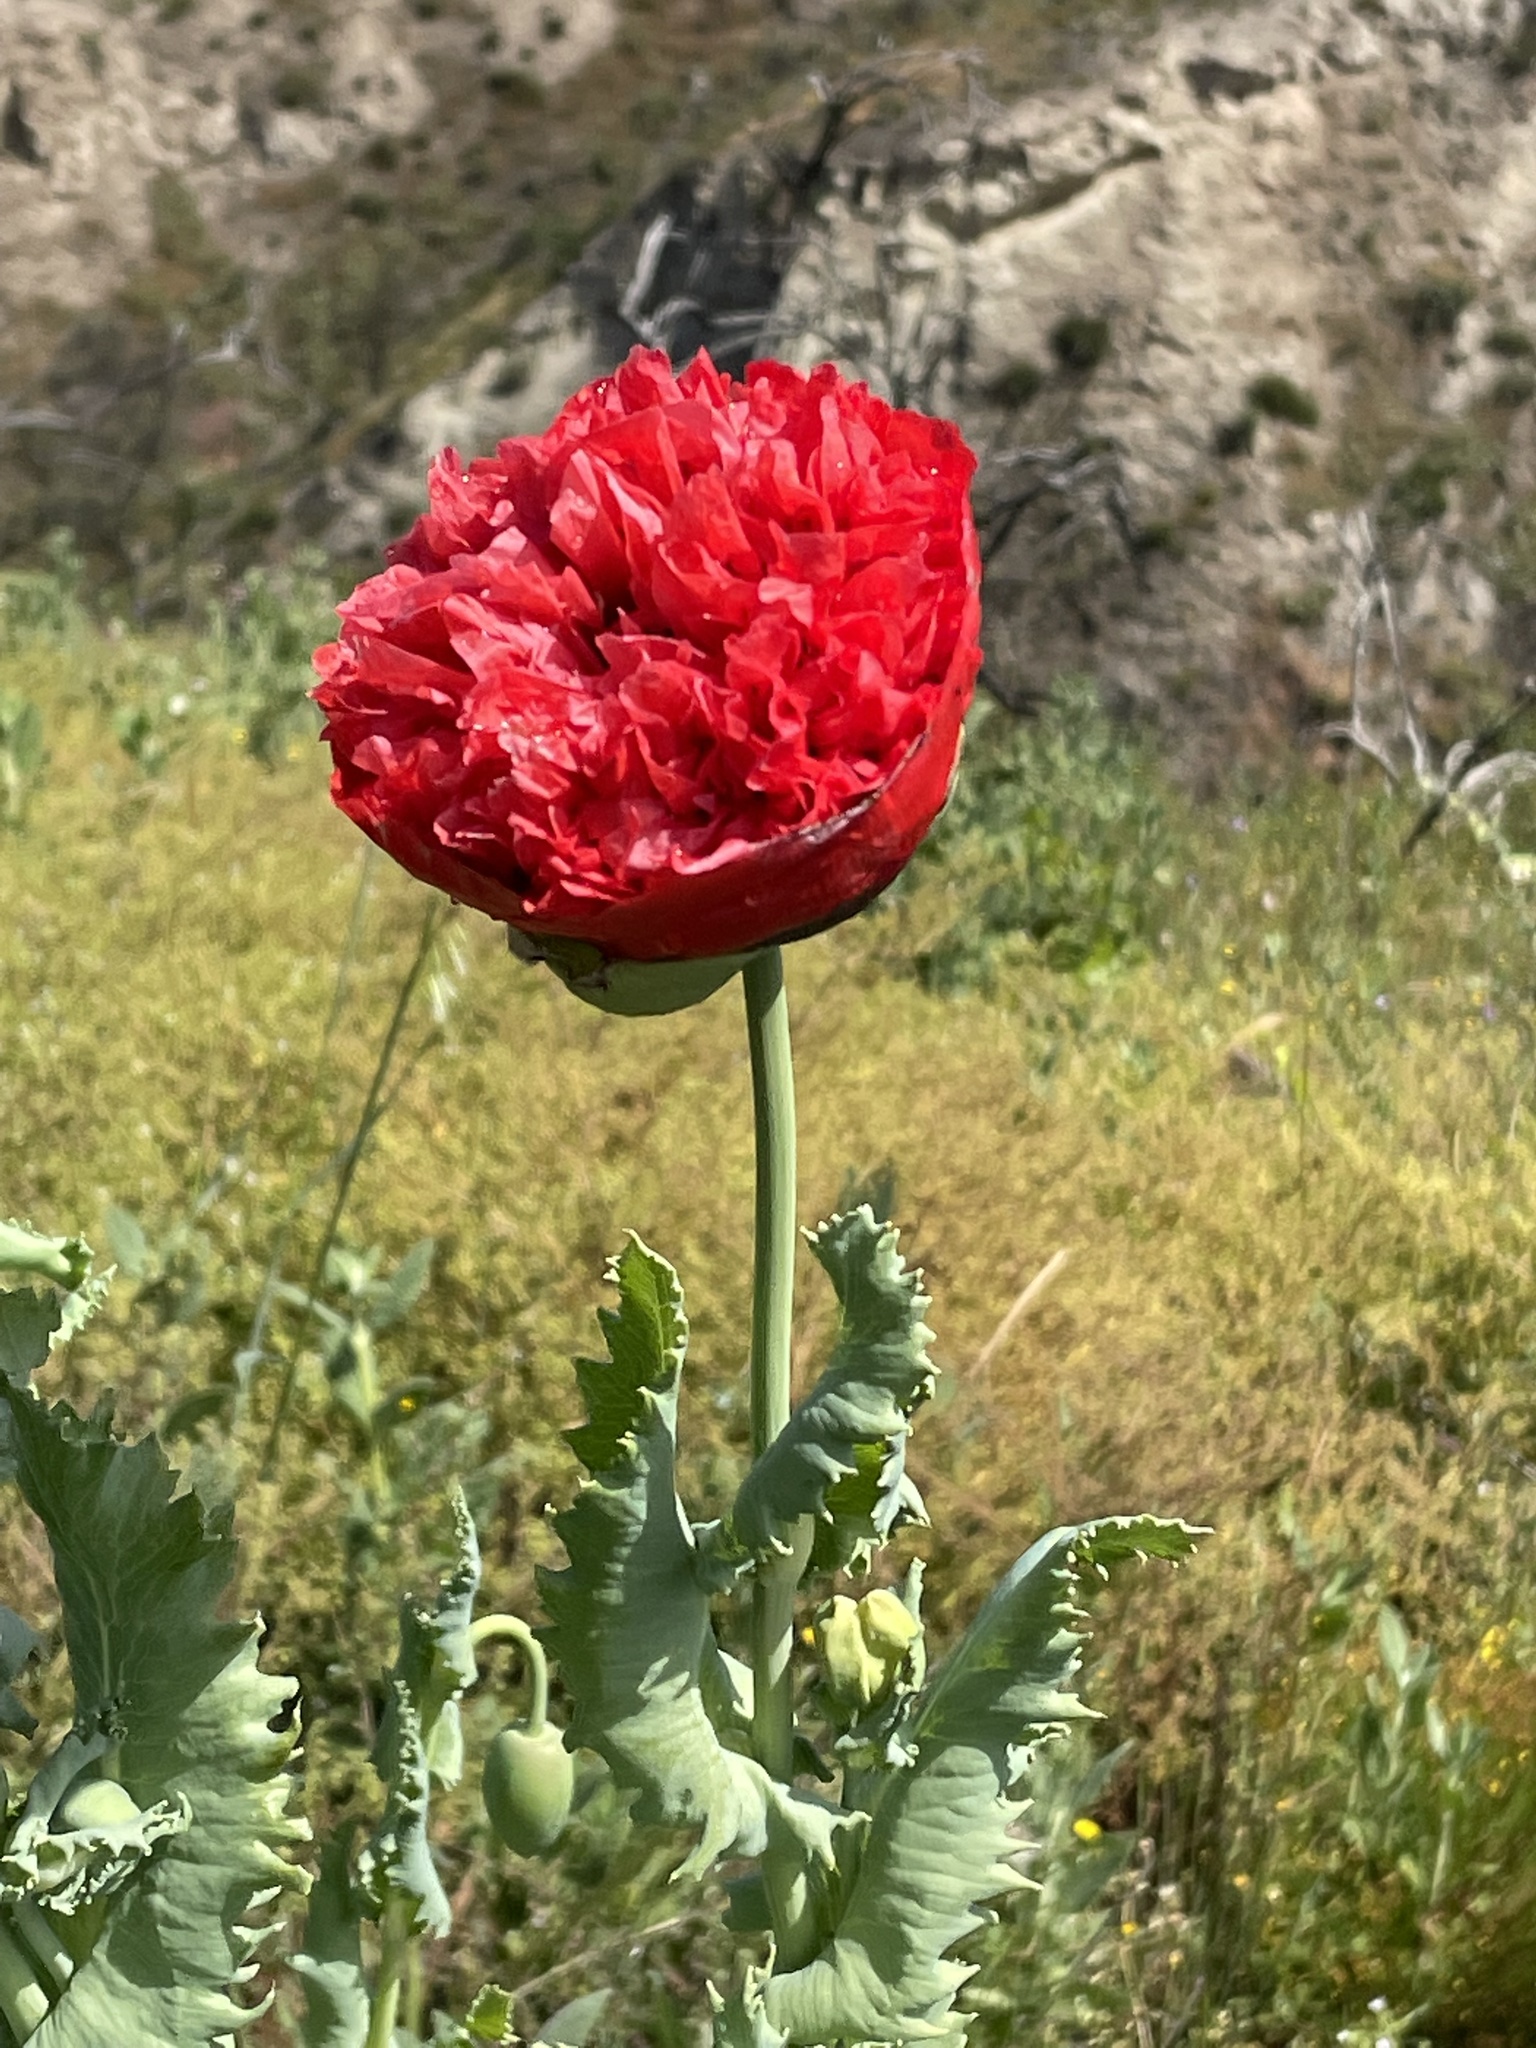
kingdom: Plantae
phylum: Tracheophyta
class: Magnoliopsida
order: Ranunculales
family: Papaveraceae
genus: Papaver
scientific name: Papaver somniferum
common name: Opium poppy
